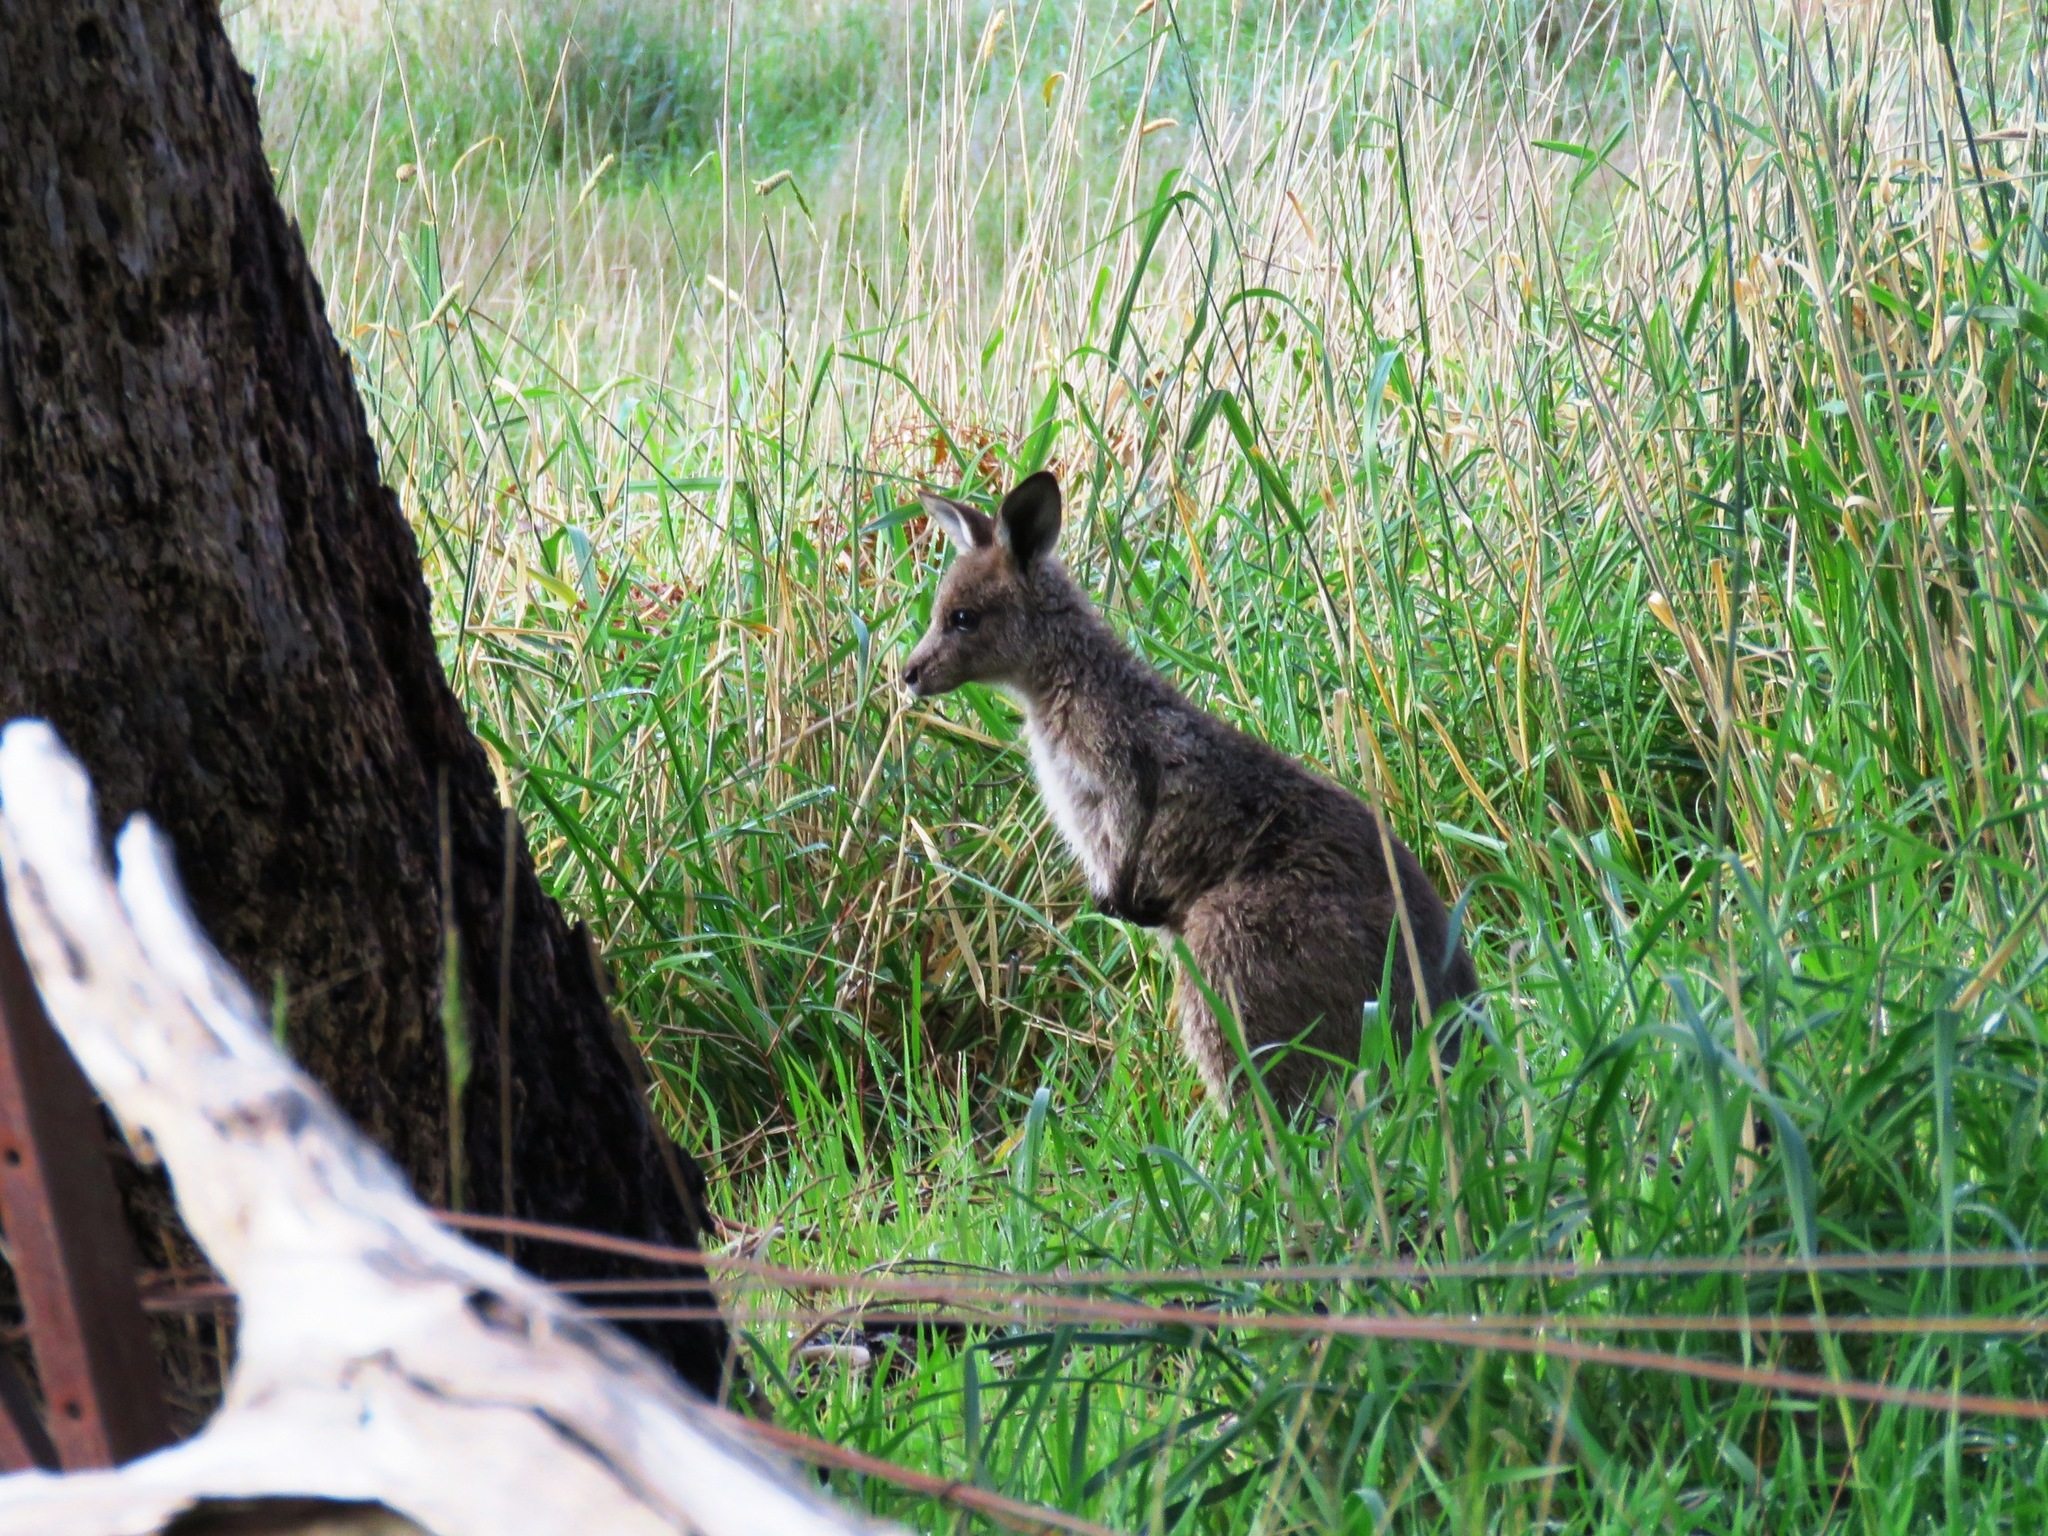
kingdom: Animalia
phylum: Chordata
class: Mammalia
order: Diprotodontia
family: Macropodidae
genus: Macropus
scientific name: Macropus giganteus
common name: Eastern grey kangaroo
